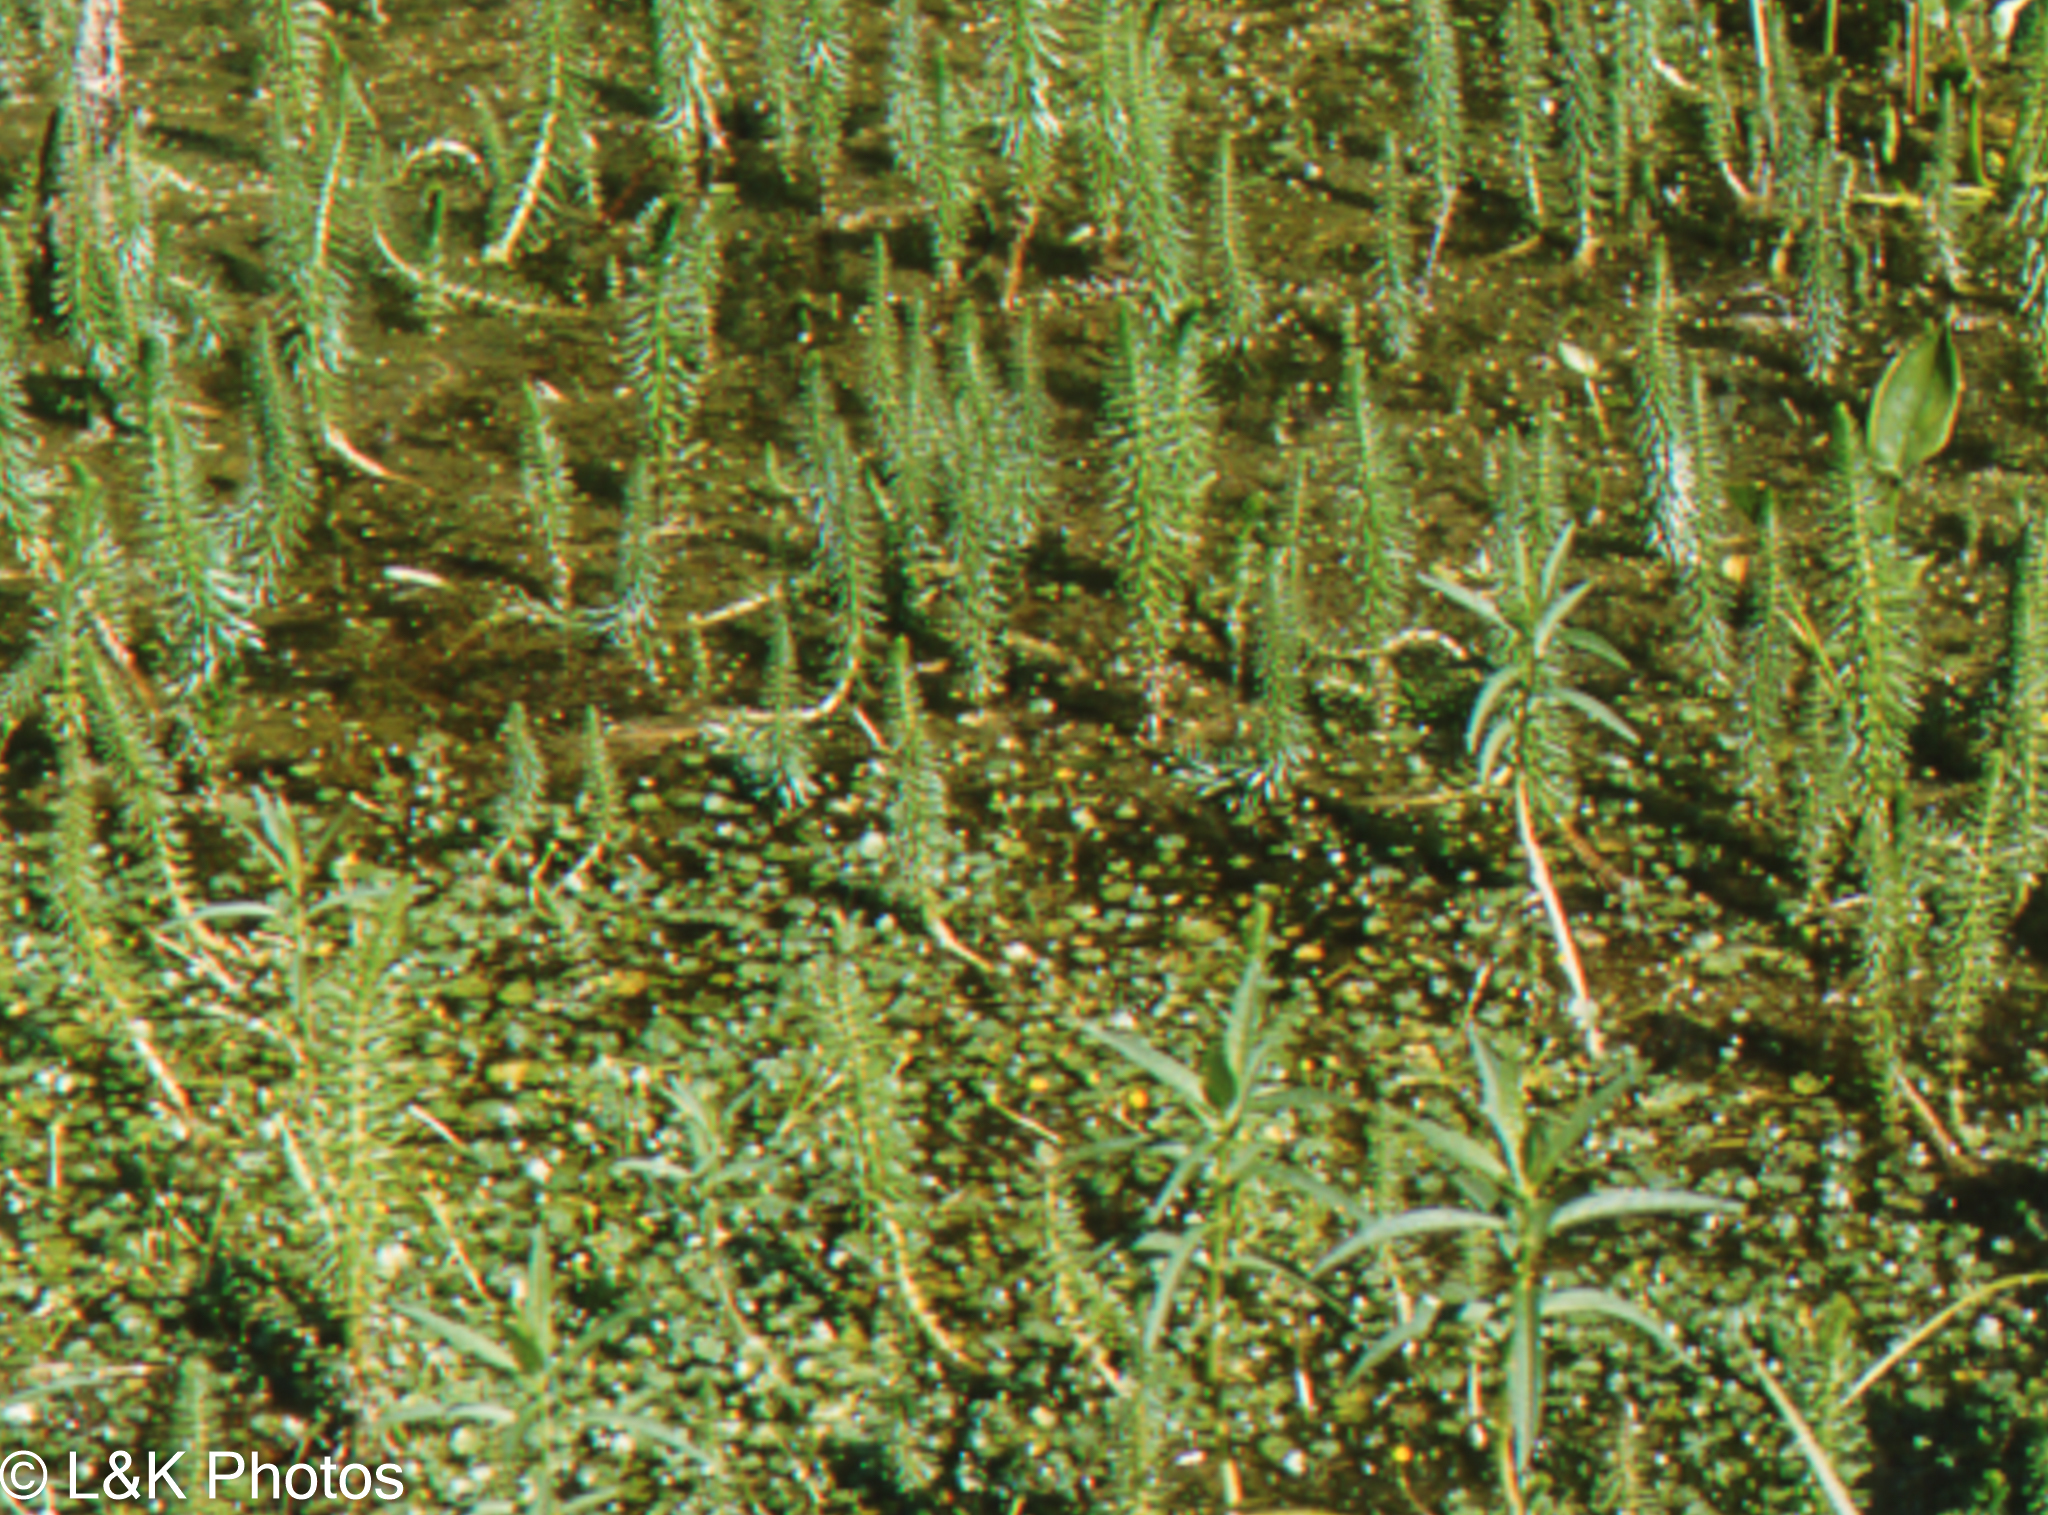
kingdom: Plantae
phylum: Tracheophyta
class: Magnoliopsida
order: Lamiales
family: Plantaginaceae
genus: Hippuris
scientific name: Hippuris vulgaris
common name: Mare's-tail
